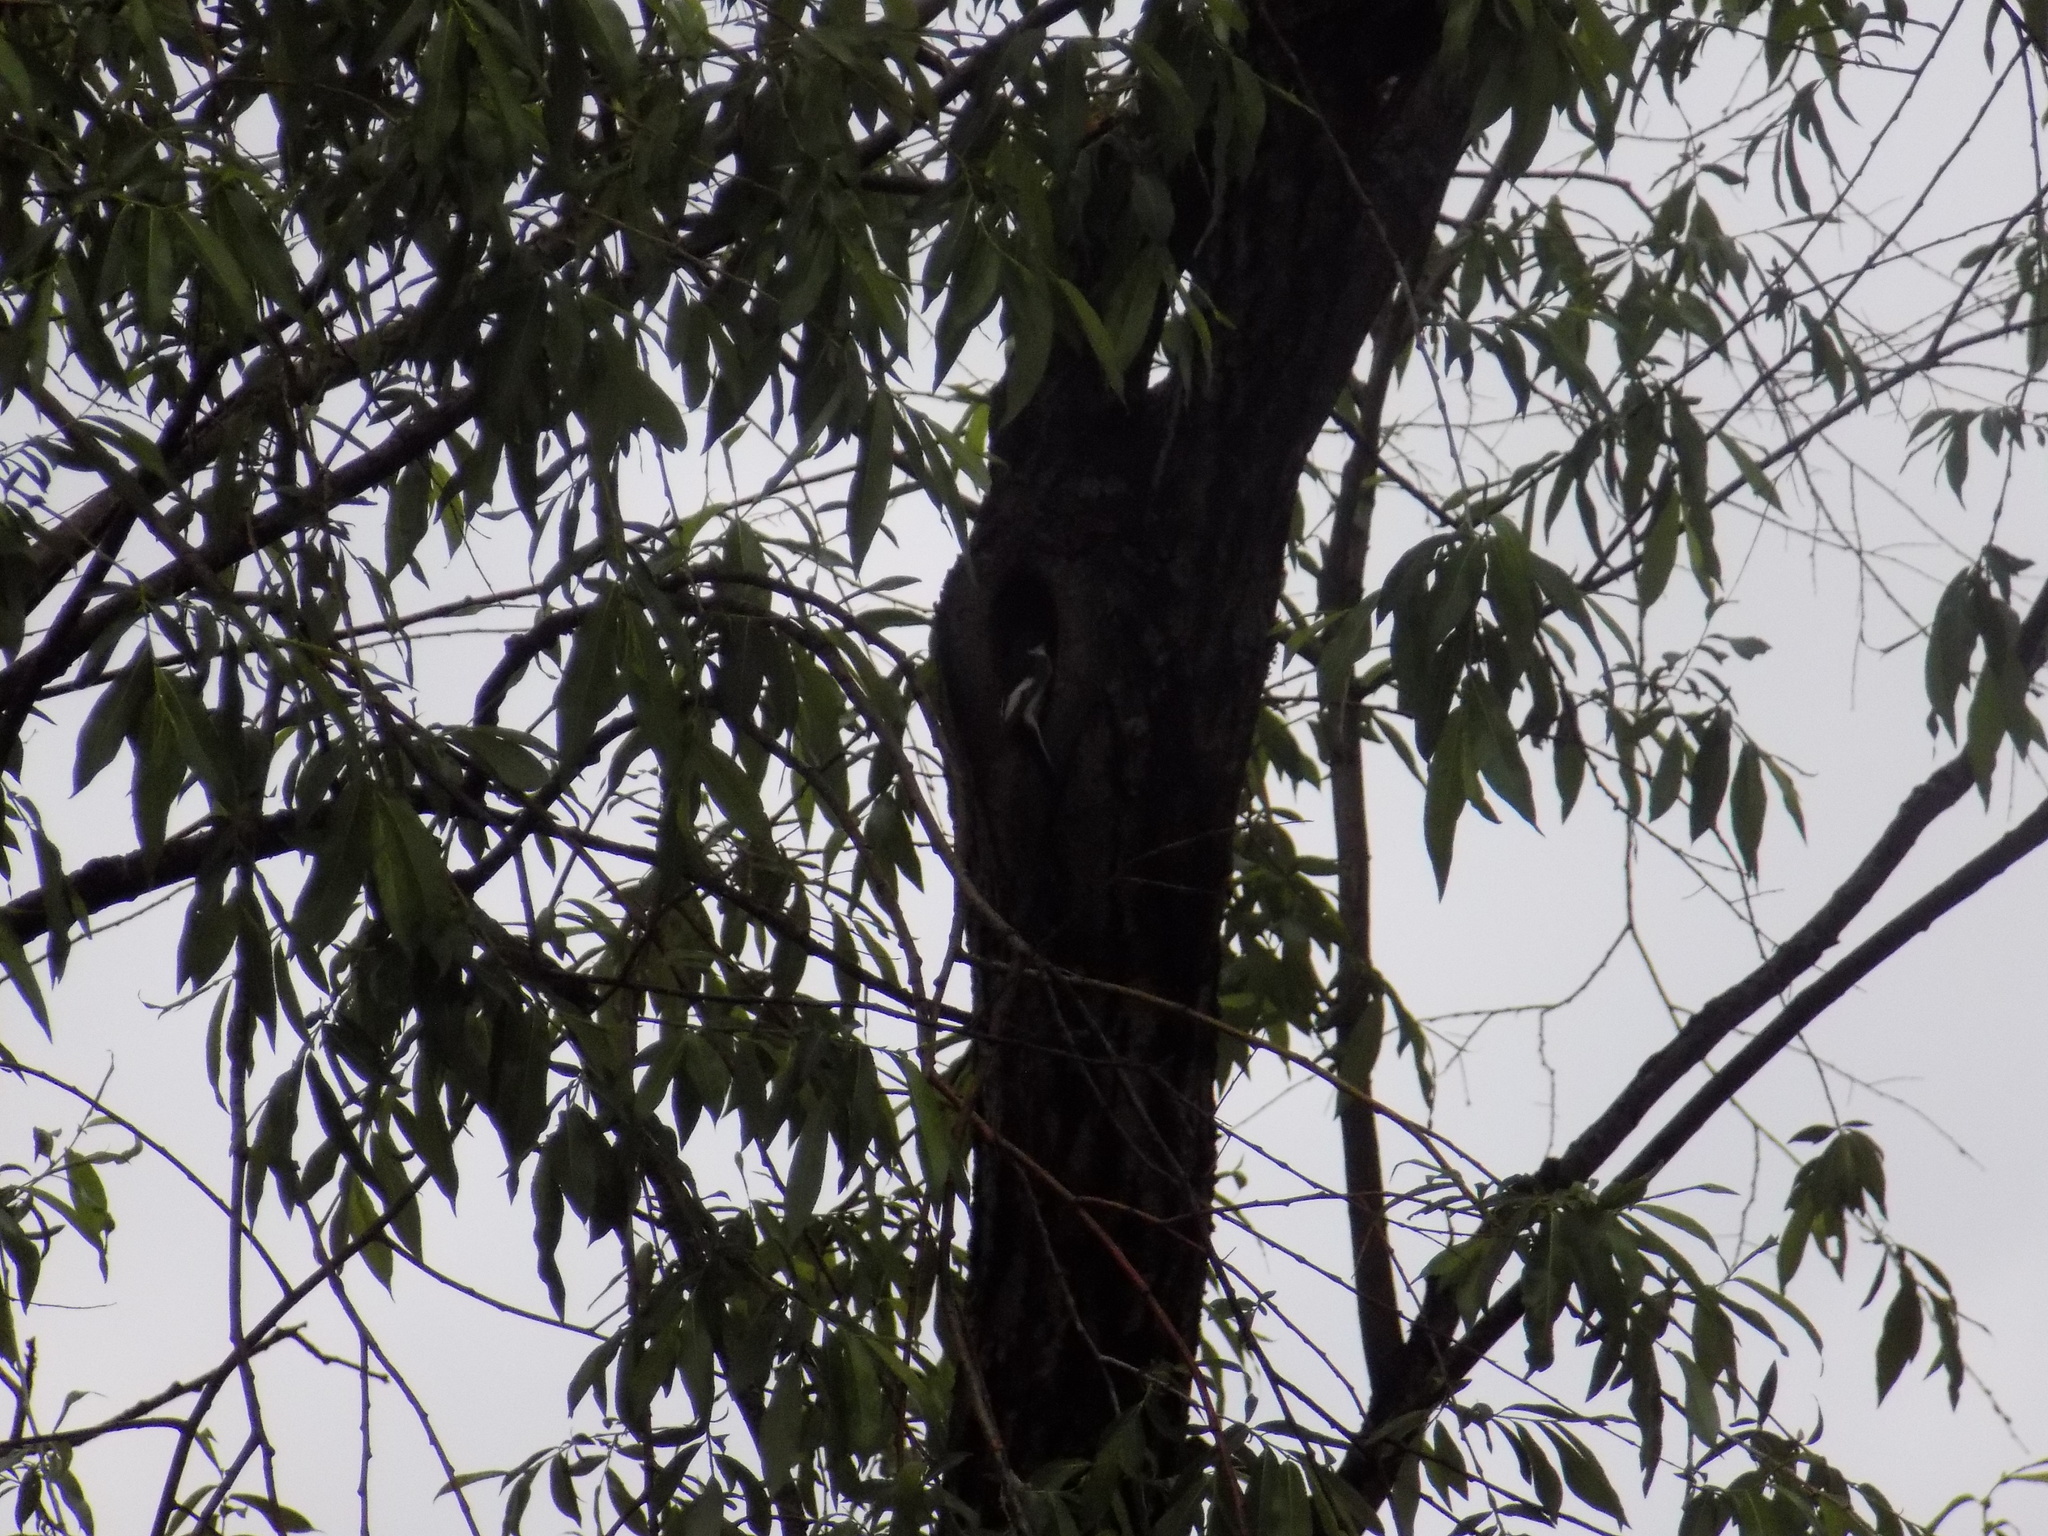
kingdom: Animalia
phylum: Chordata
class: Aves
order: Passeriformes
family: Muscicapidae
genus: Ficedula
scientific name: Ficedula hypoleuca
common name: European pied flycatcher
